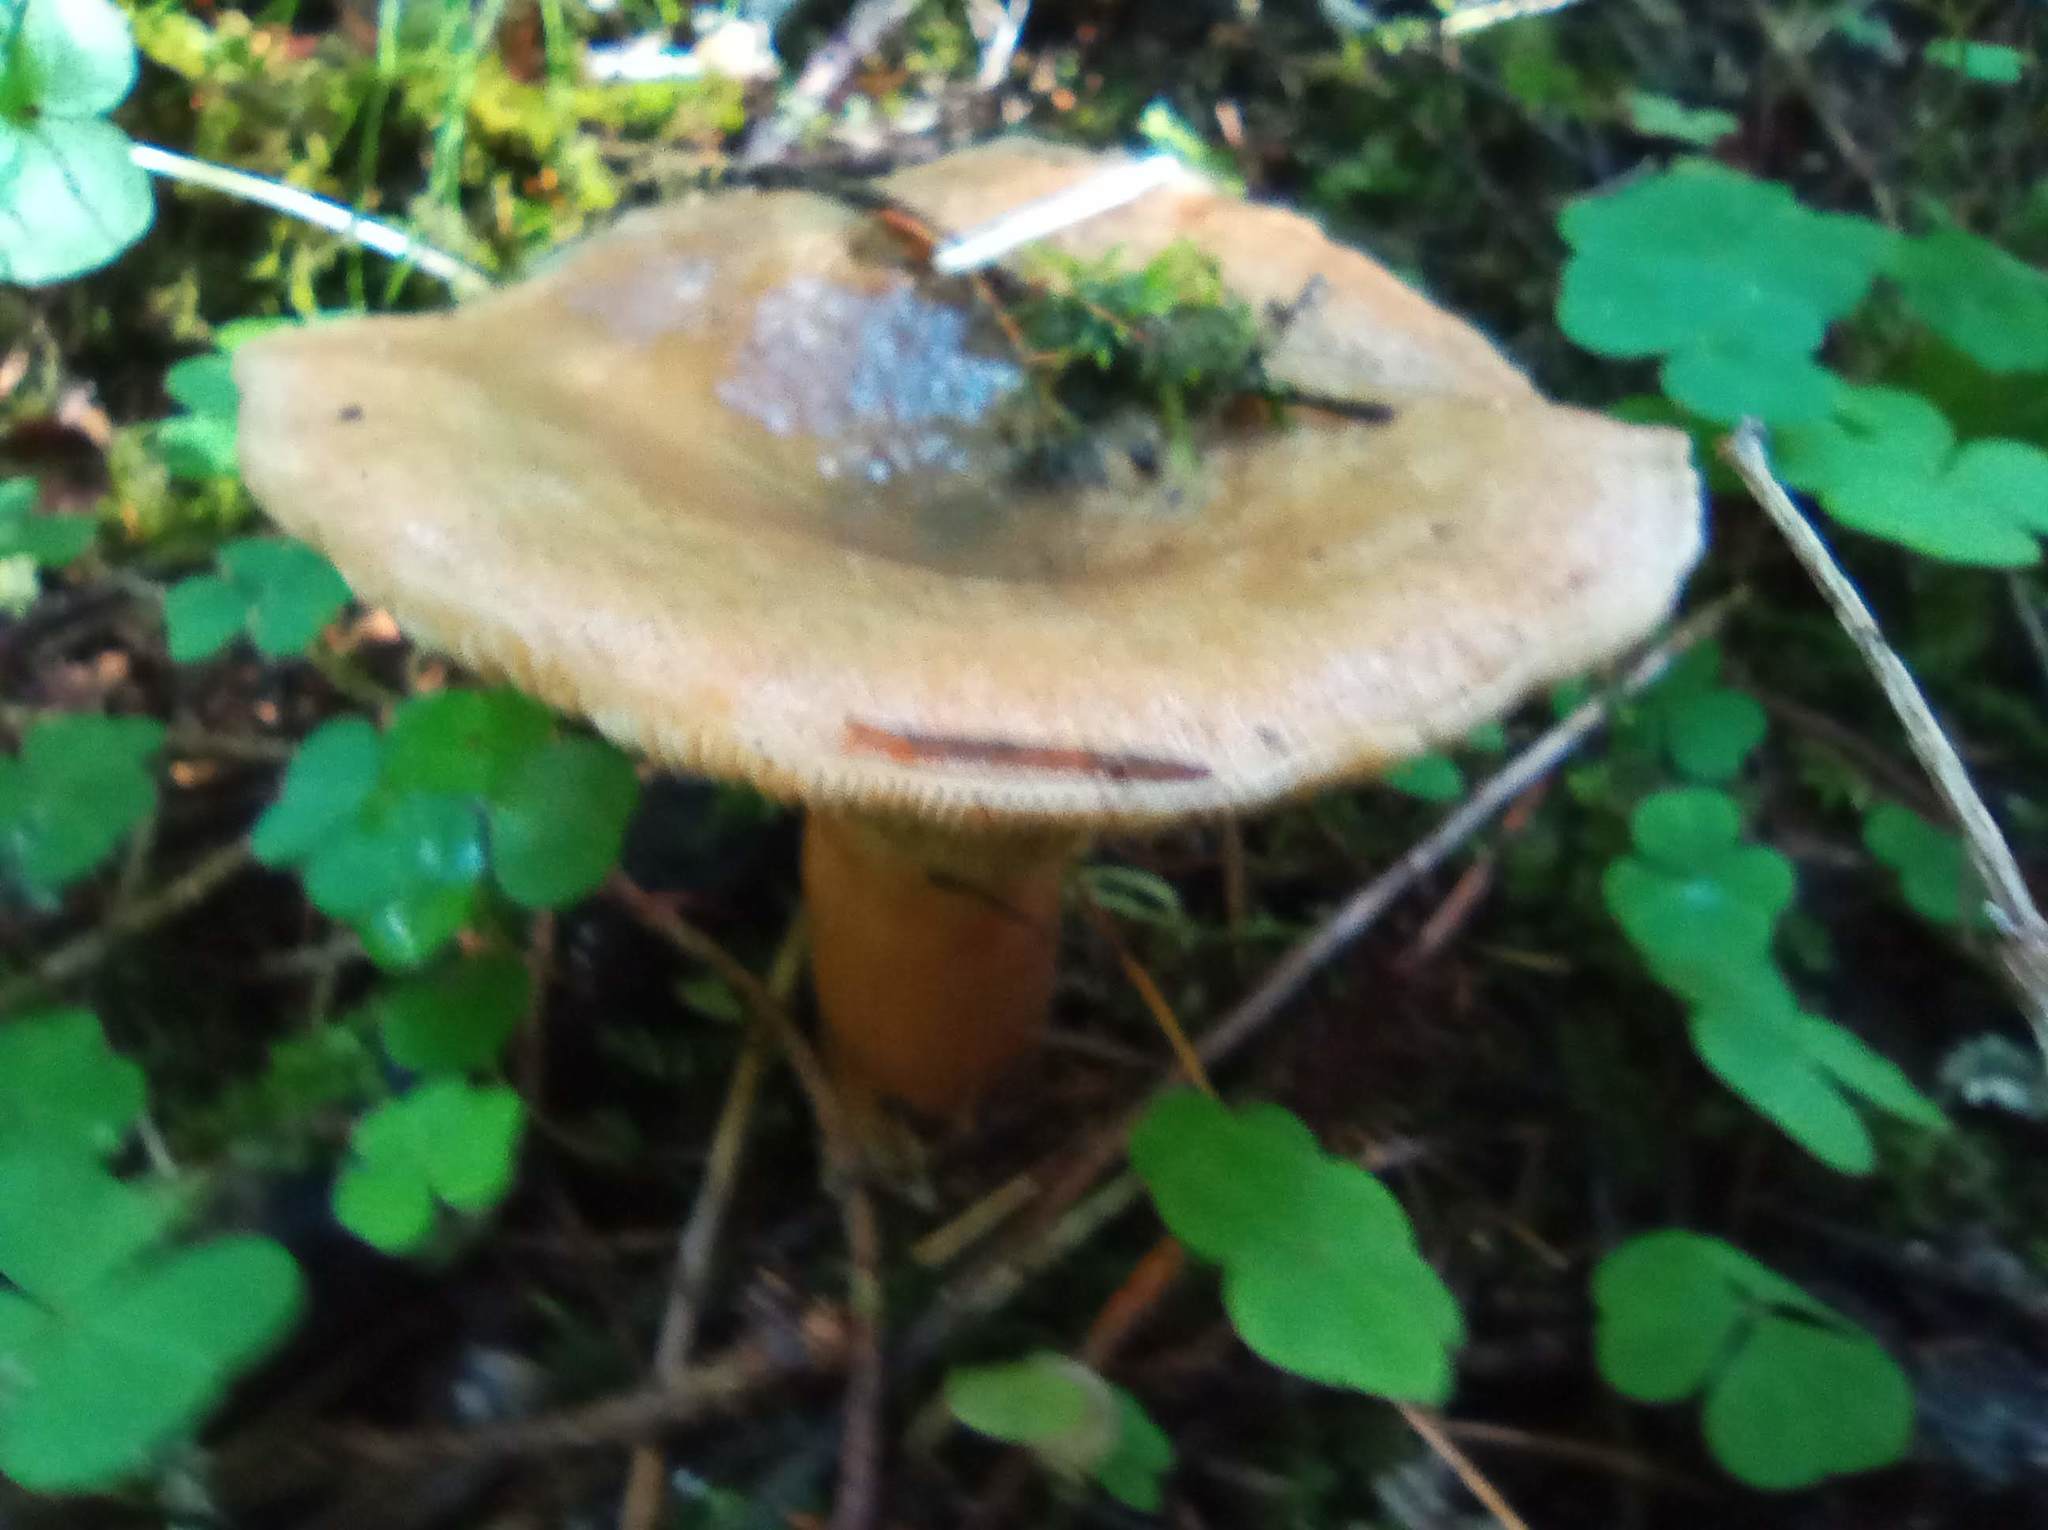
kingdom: Fungi
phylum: Basidiomycota
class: Agaricomycetes
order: Russulales
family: Russulaceae
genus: Lactarius
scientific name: Lactarius deterrimus
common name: False saffron milkcap
